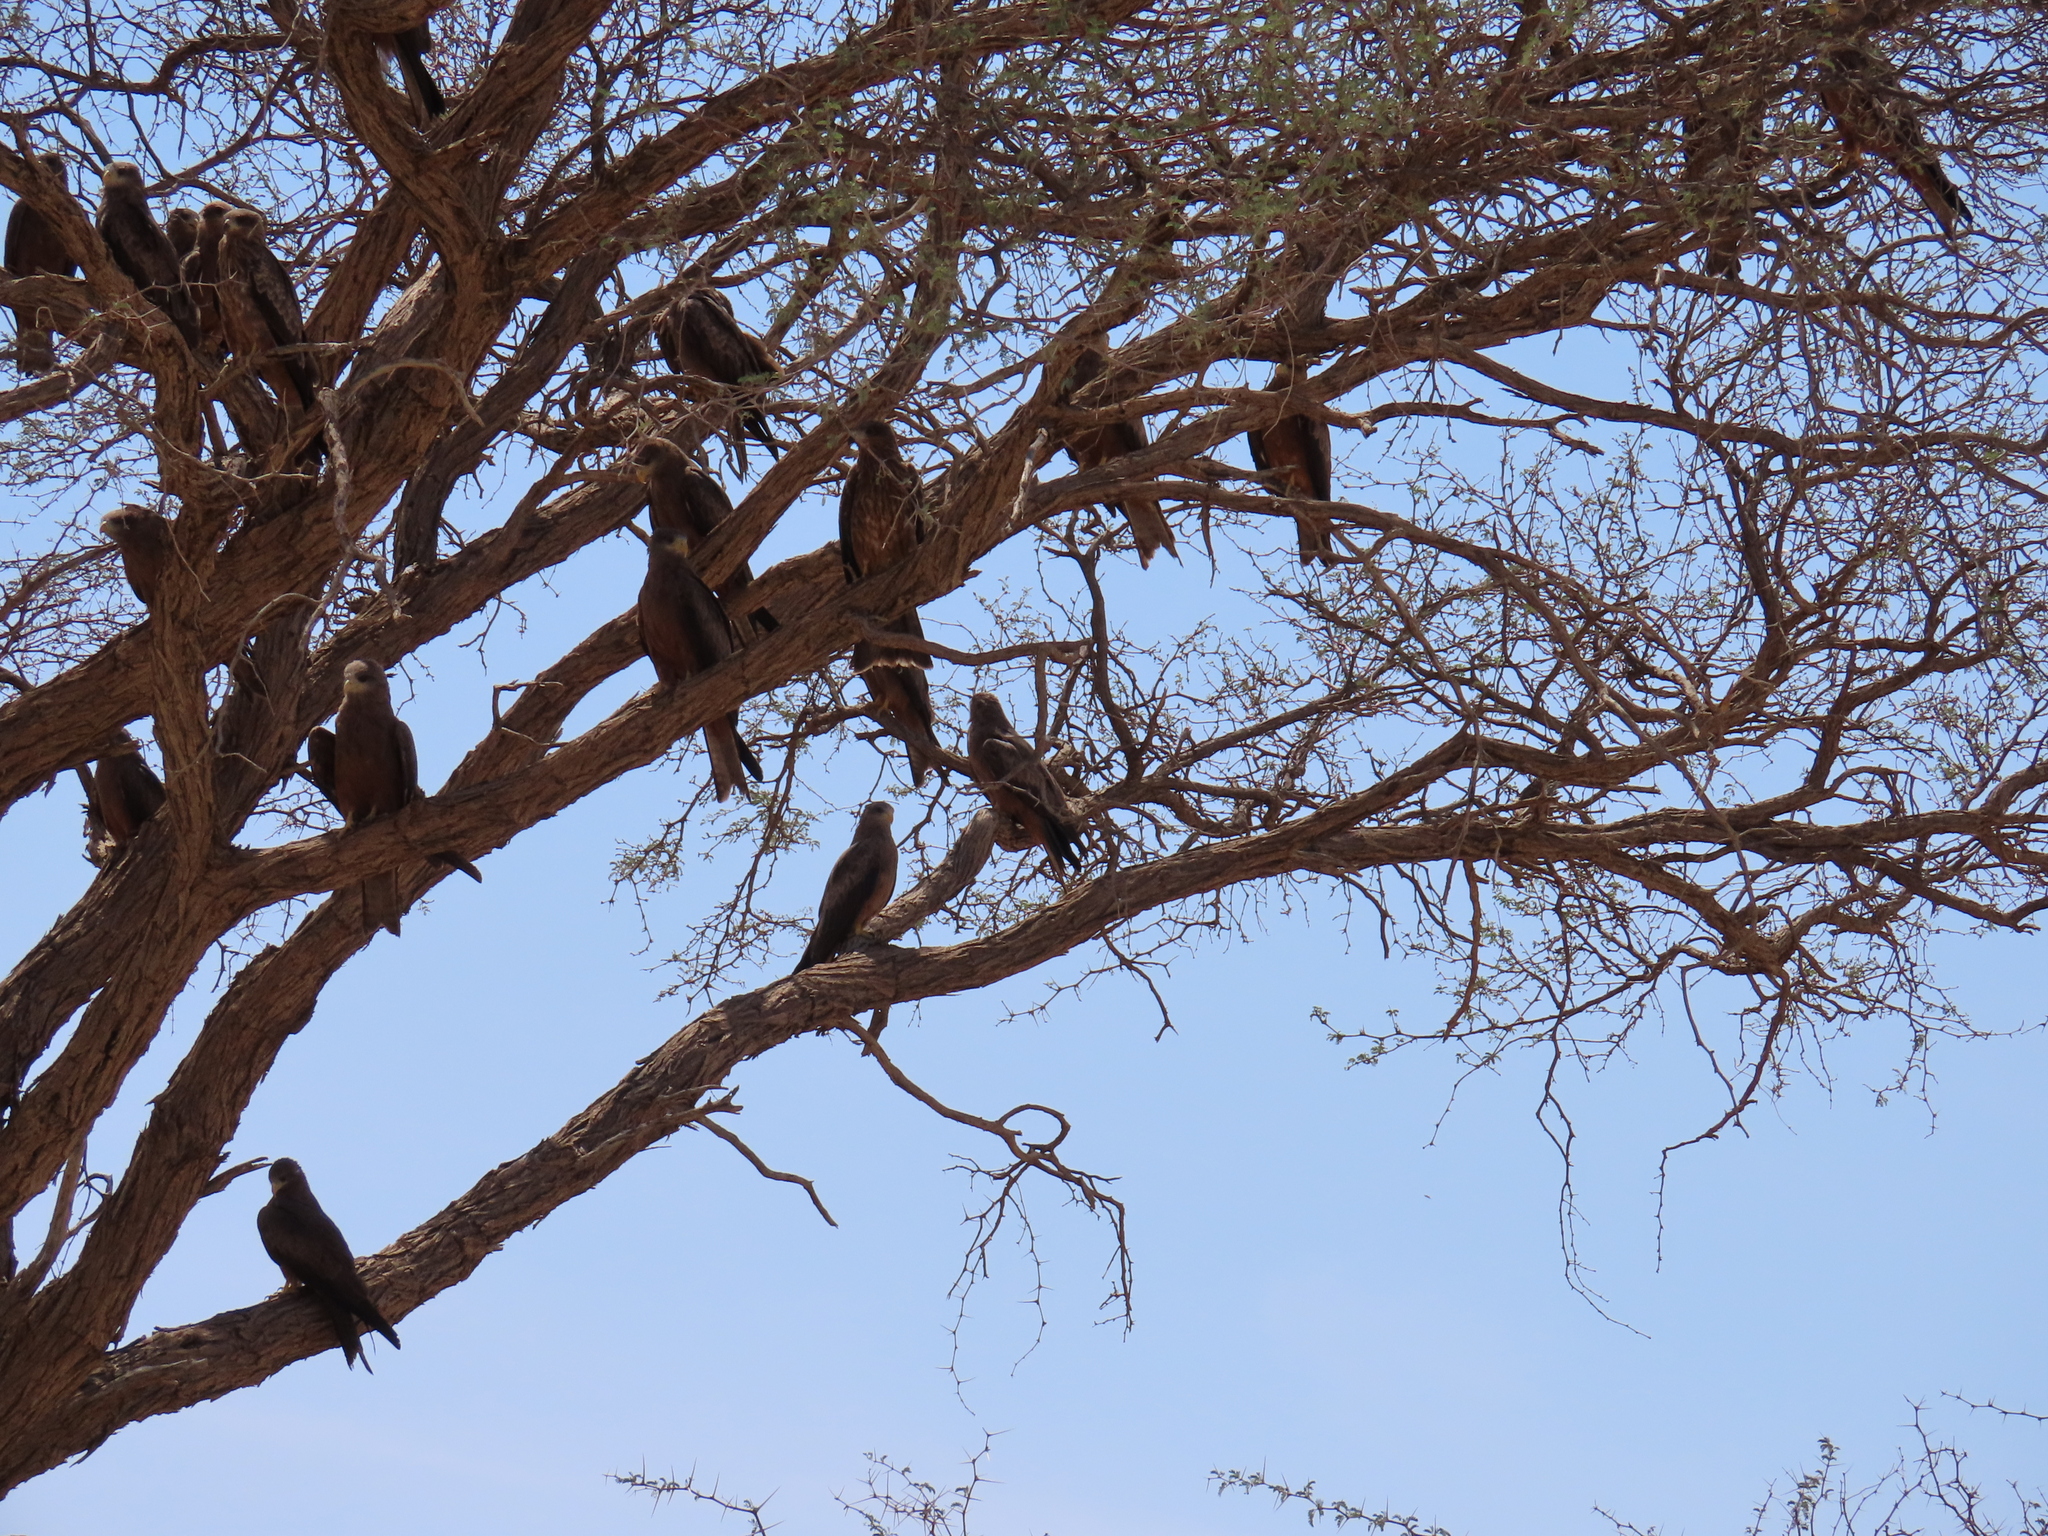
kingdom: Animalia
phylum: Chordata
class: Aves
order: Accipitriformes
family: Accipitridae
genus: Milvus
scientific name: Milvus migrans
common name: Black kite
